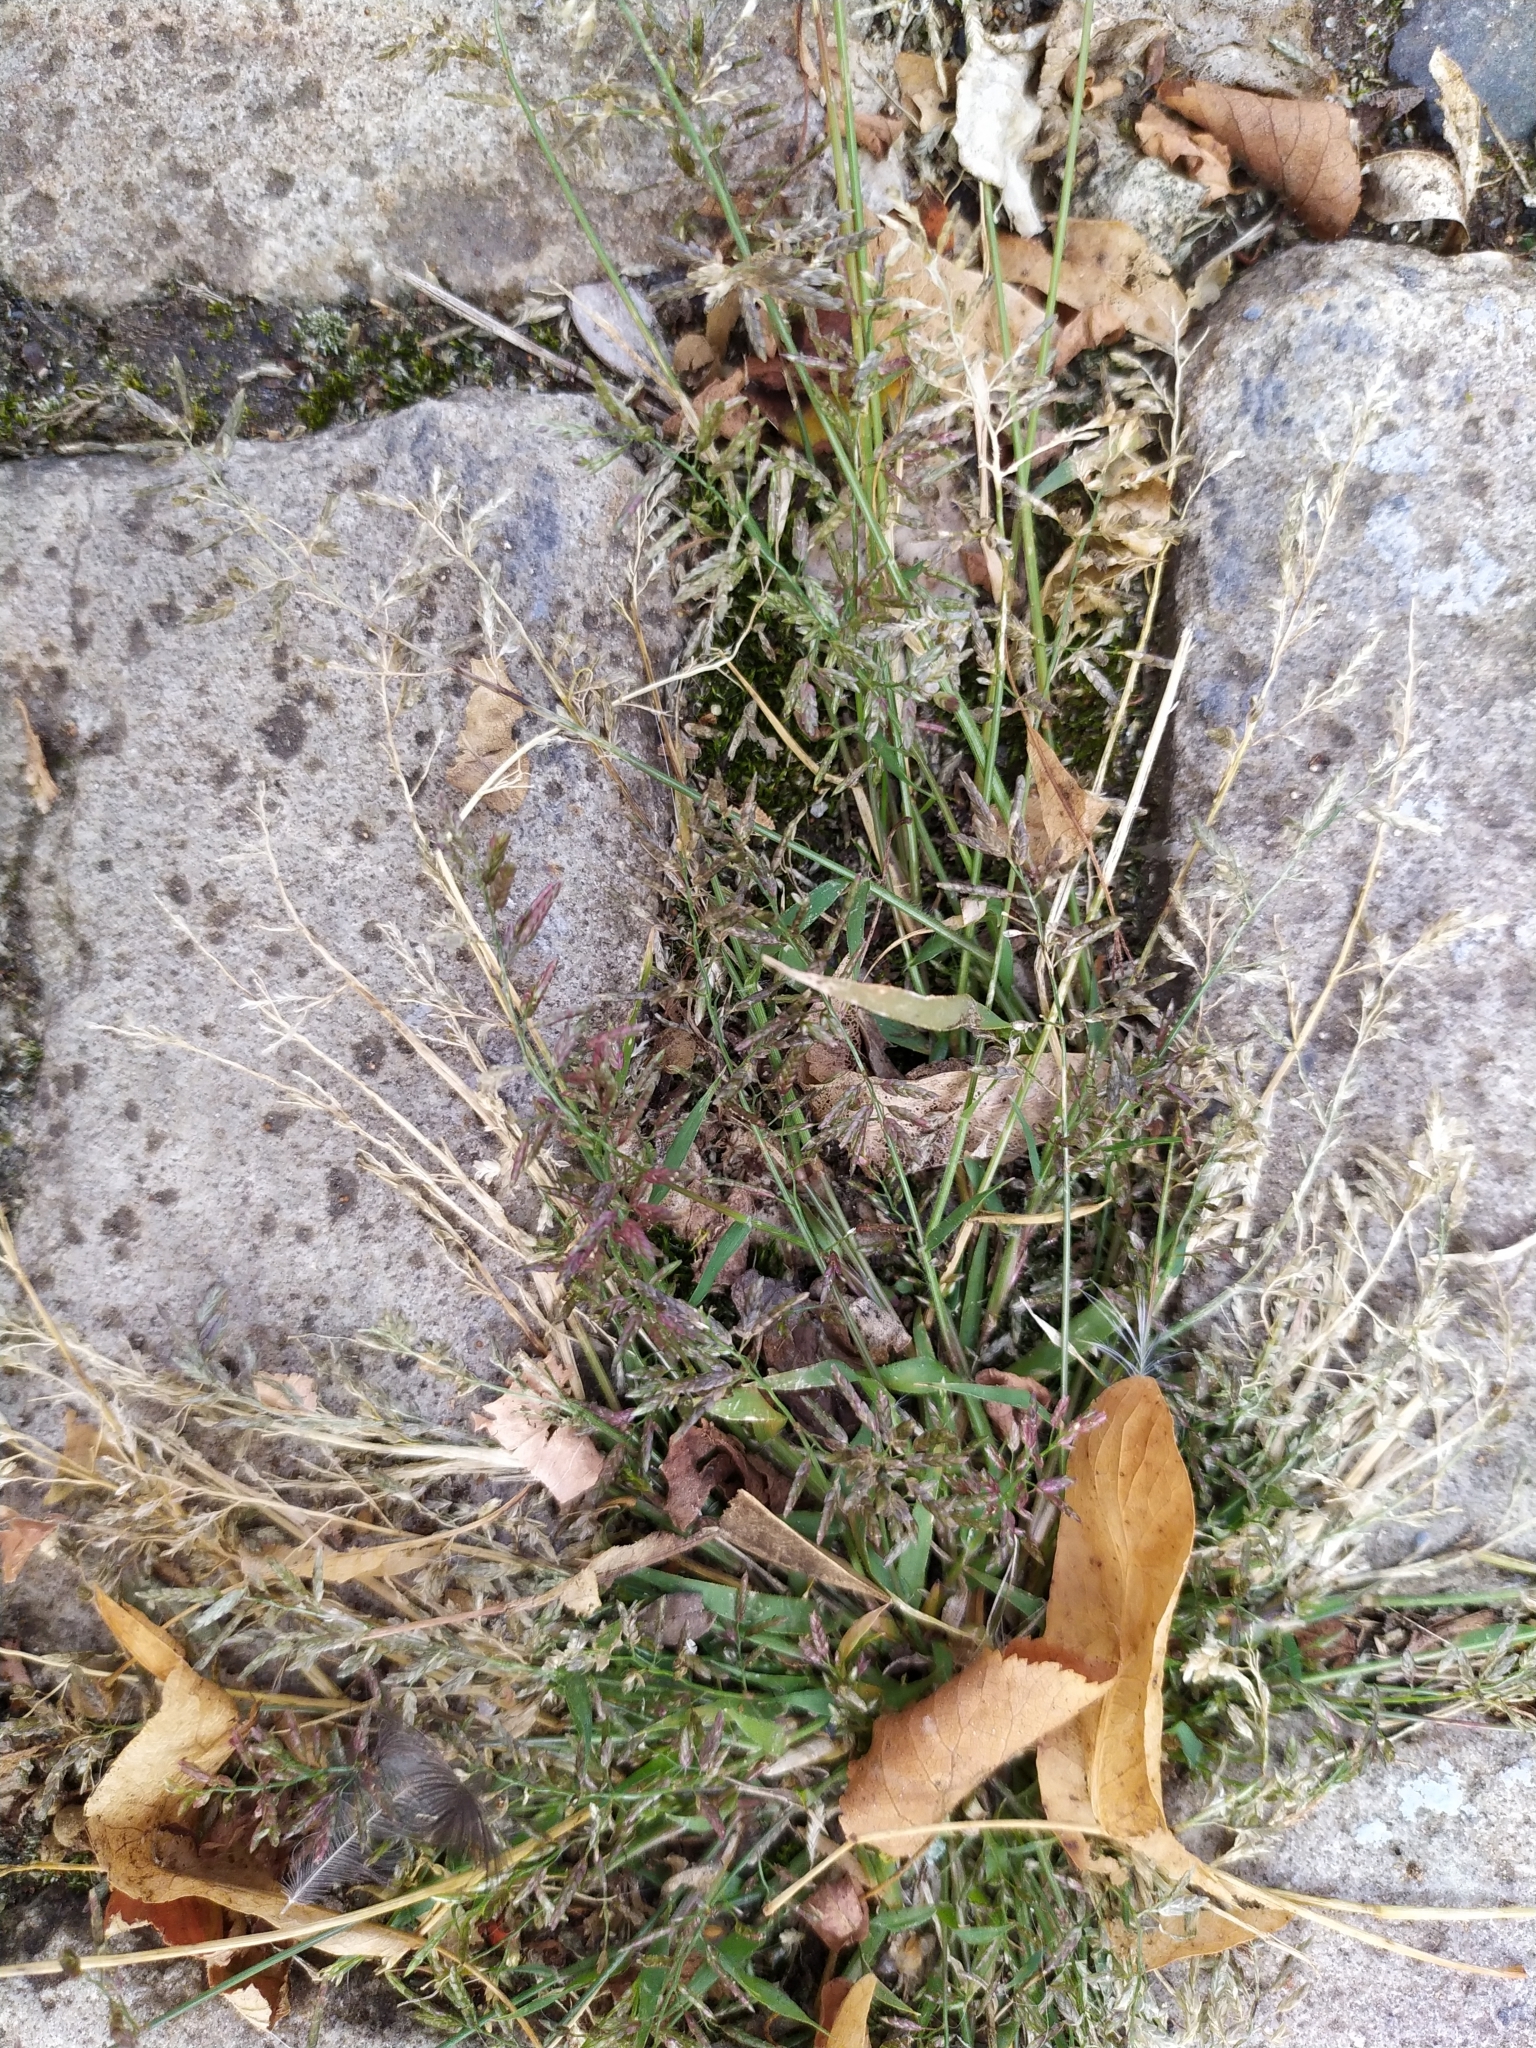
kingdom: Plantae
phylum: Tracheophyta
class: Liliopsida
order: Poales
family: Poaceae
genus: Eragrostis
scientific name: Eragrostis minor
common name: Small love-grass
